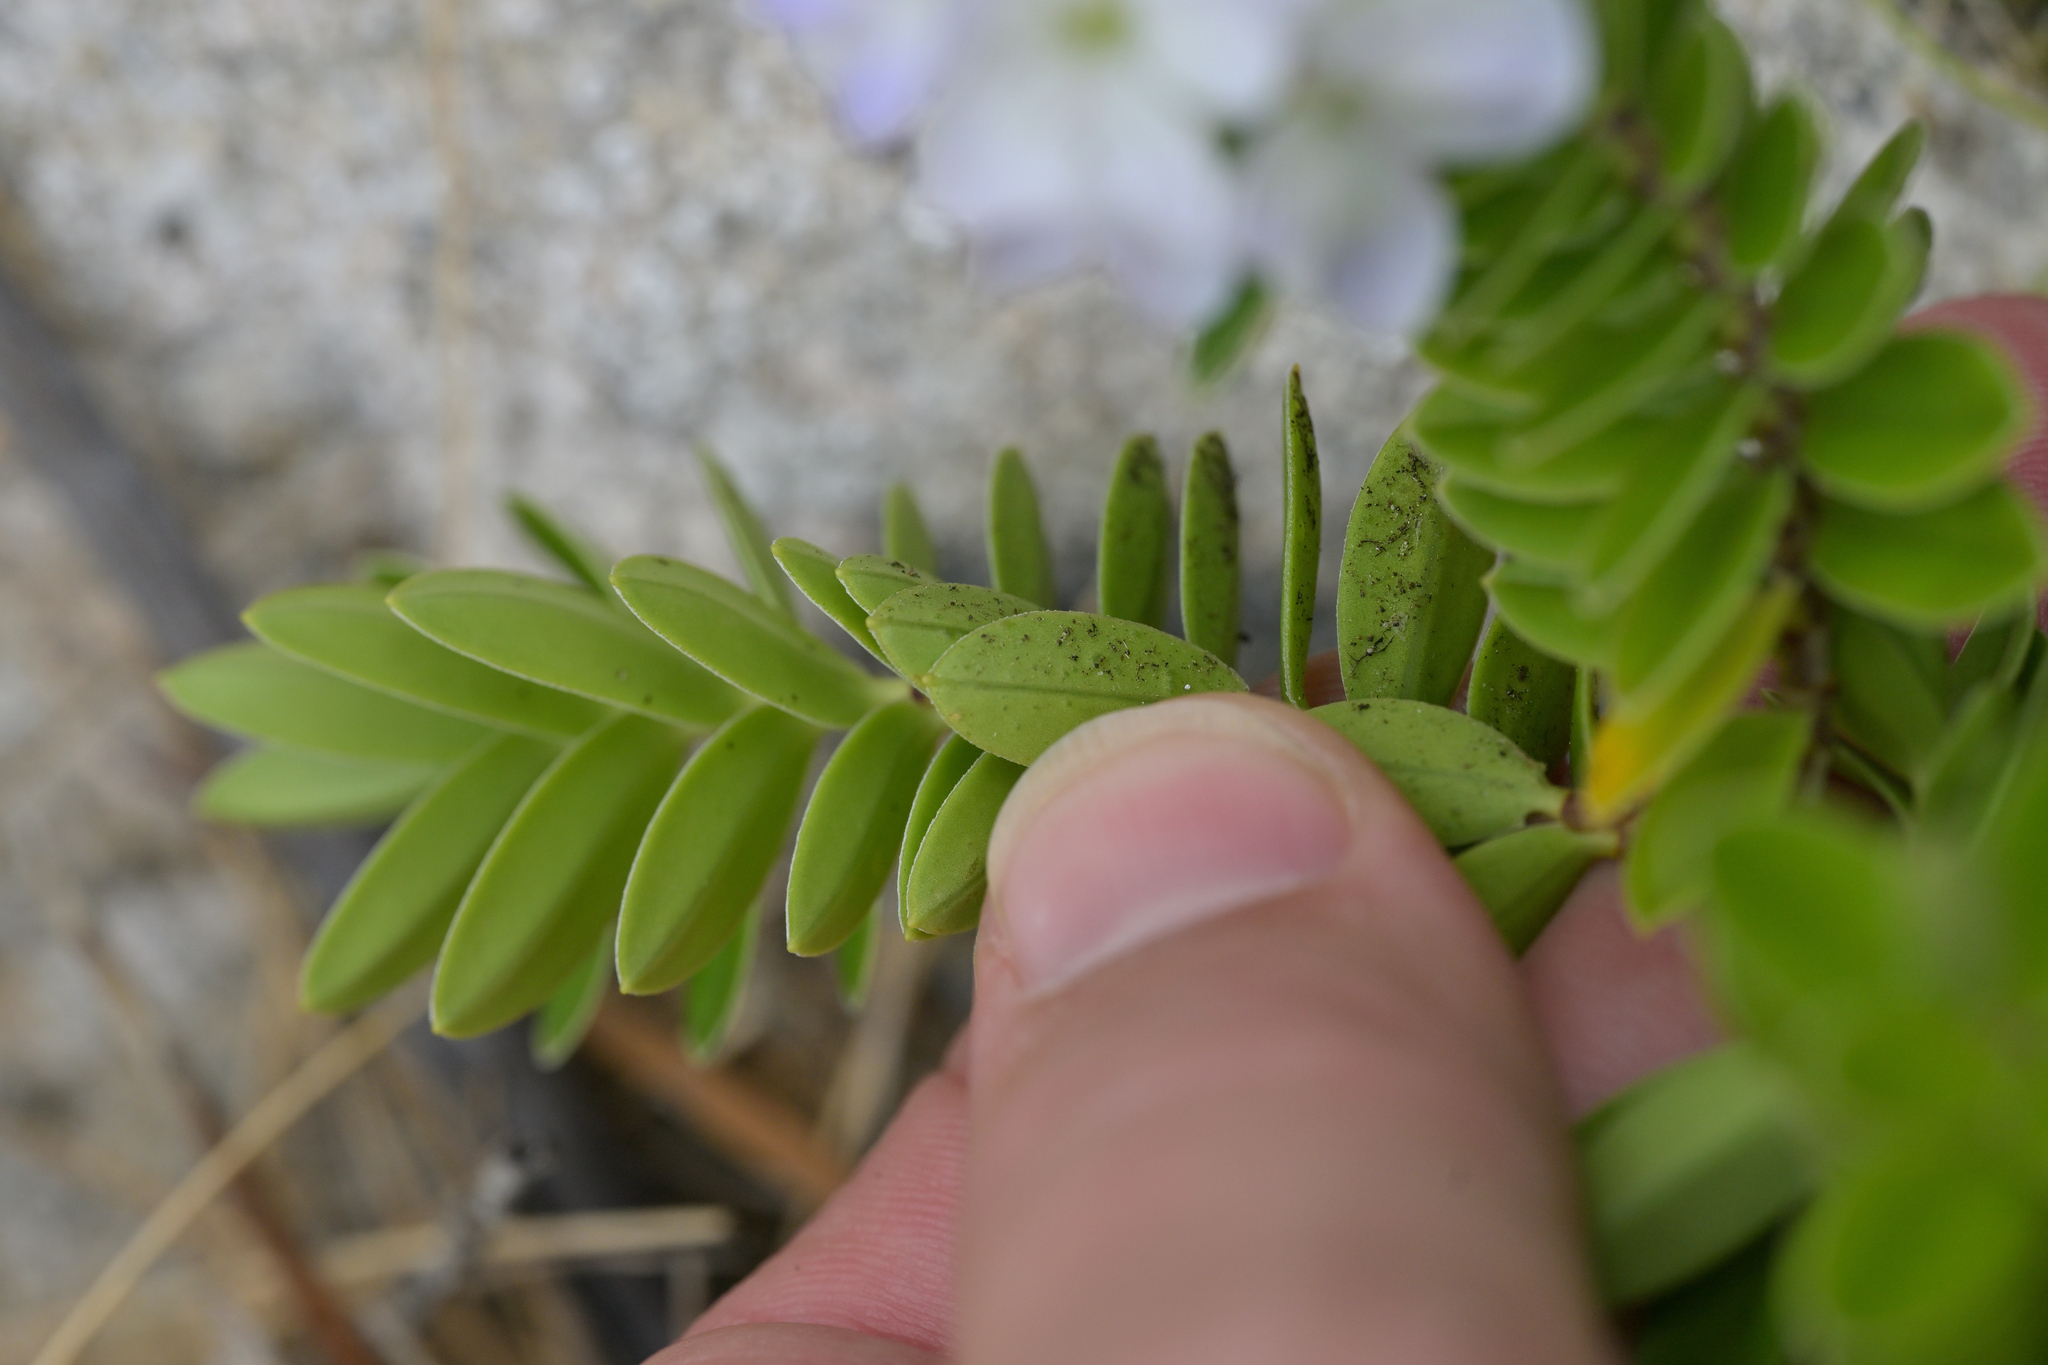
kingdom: Plantae
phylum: Tracheophyta
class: Magnoliopsida
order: Lamiales
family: Plantaginaceae
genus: Veronica
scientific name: Veronica elliptica
